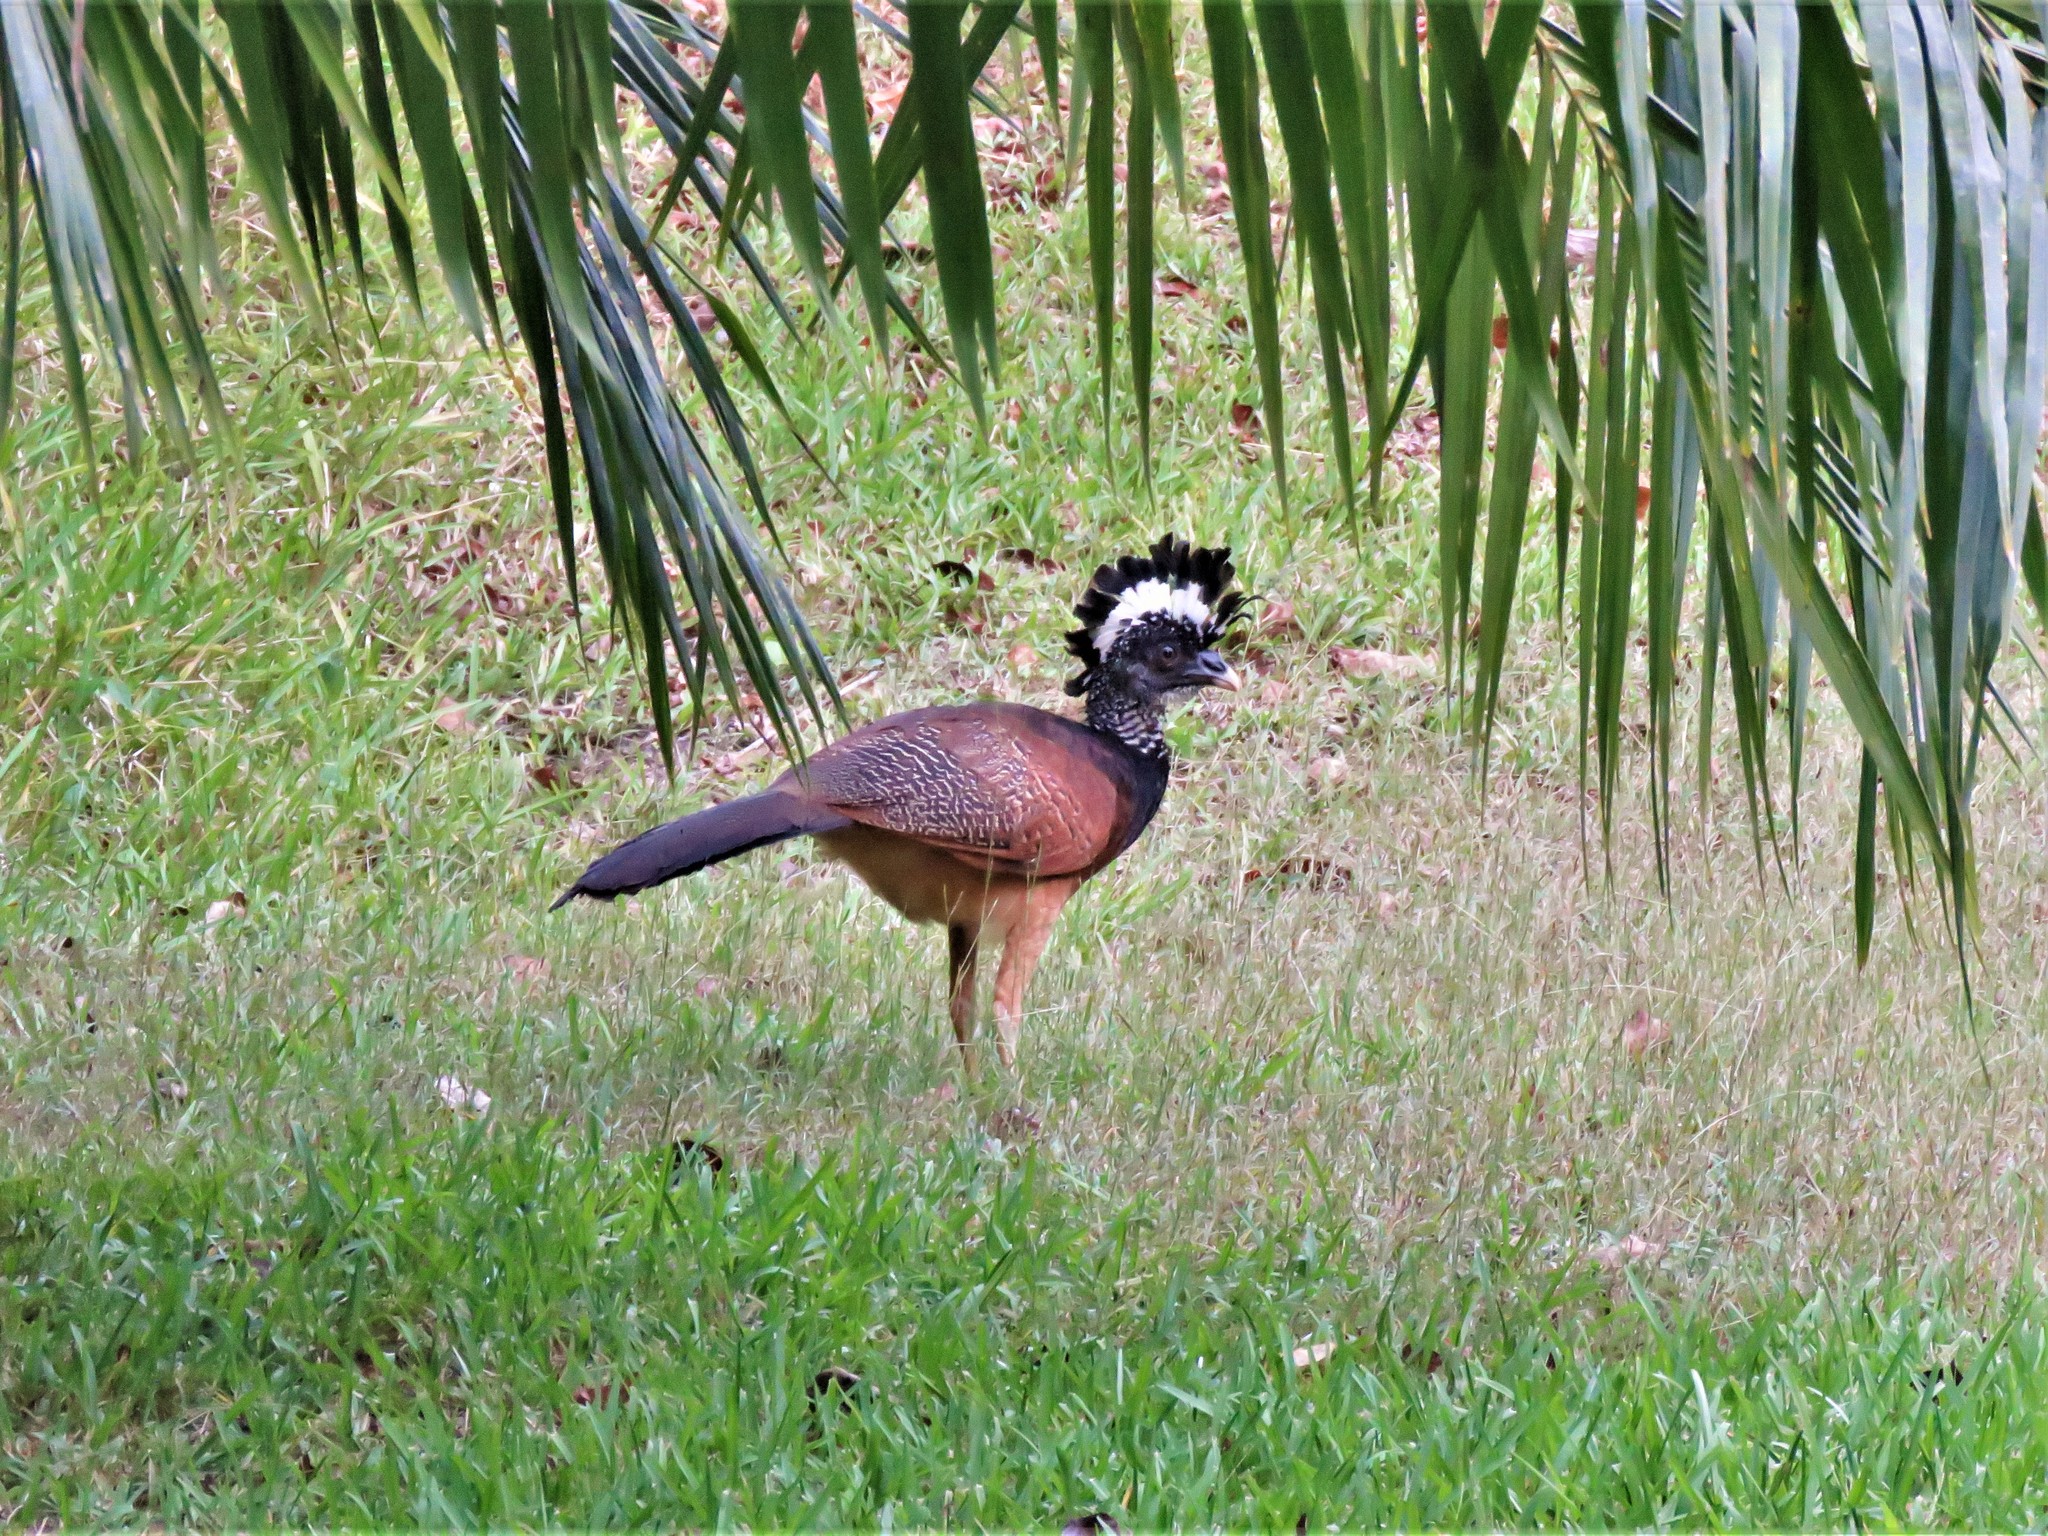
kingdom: Animalia
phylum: Chordata
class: Aves
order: Galliformes
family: Cracidae
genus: Crax
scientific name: Crax rubra
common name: Great curassow
